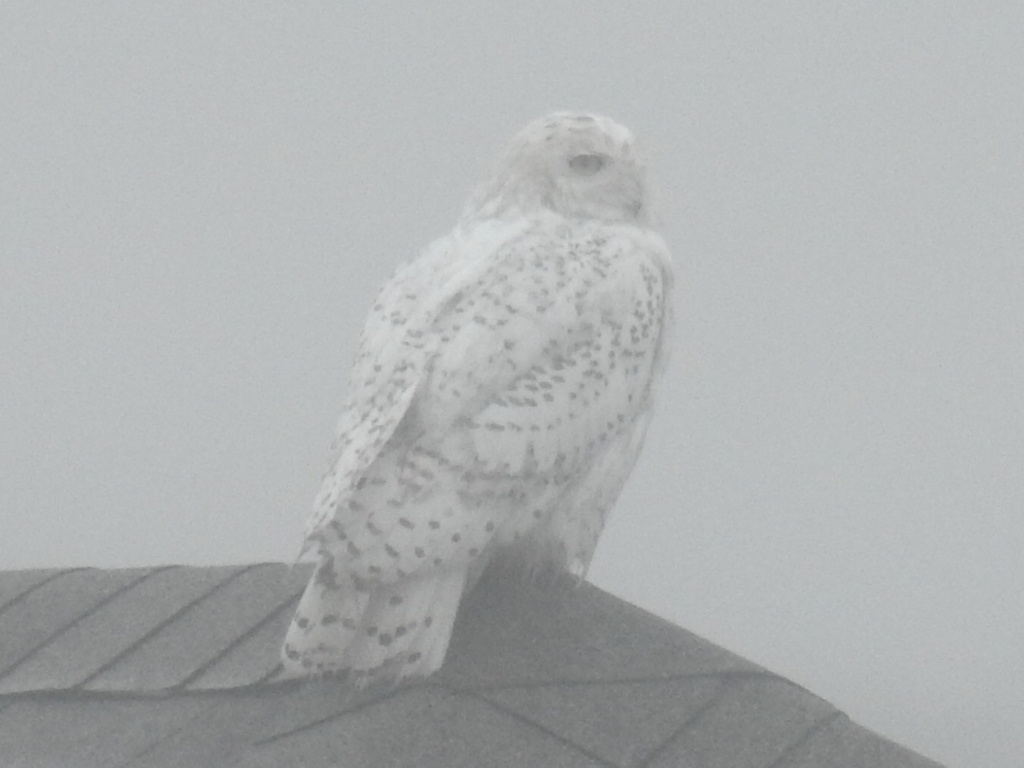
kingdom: Animalia
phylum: Chordata
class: Aves
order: Strigiformes
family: Strigidae
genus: Bubo
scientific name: Bubo scandiacus
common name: Snowy owl
